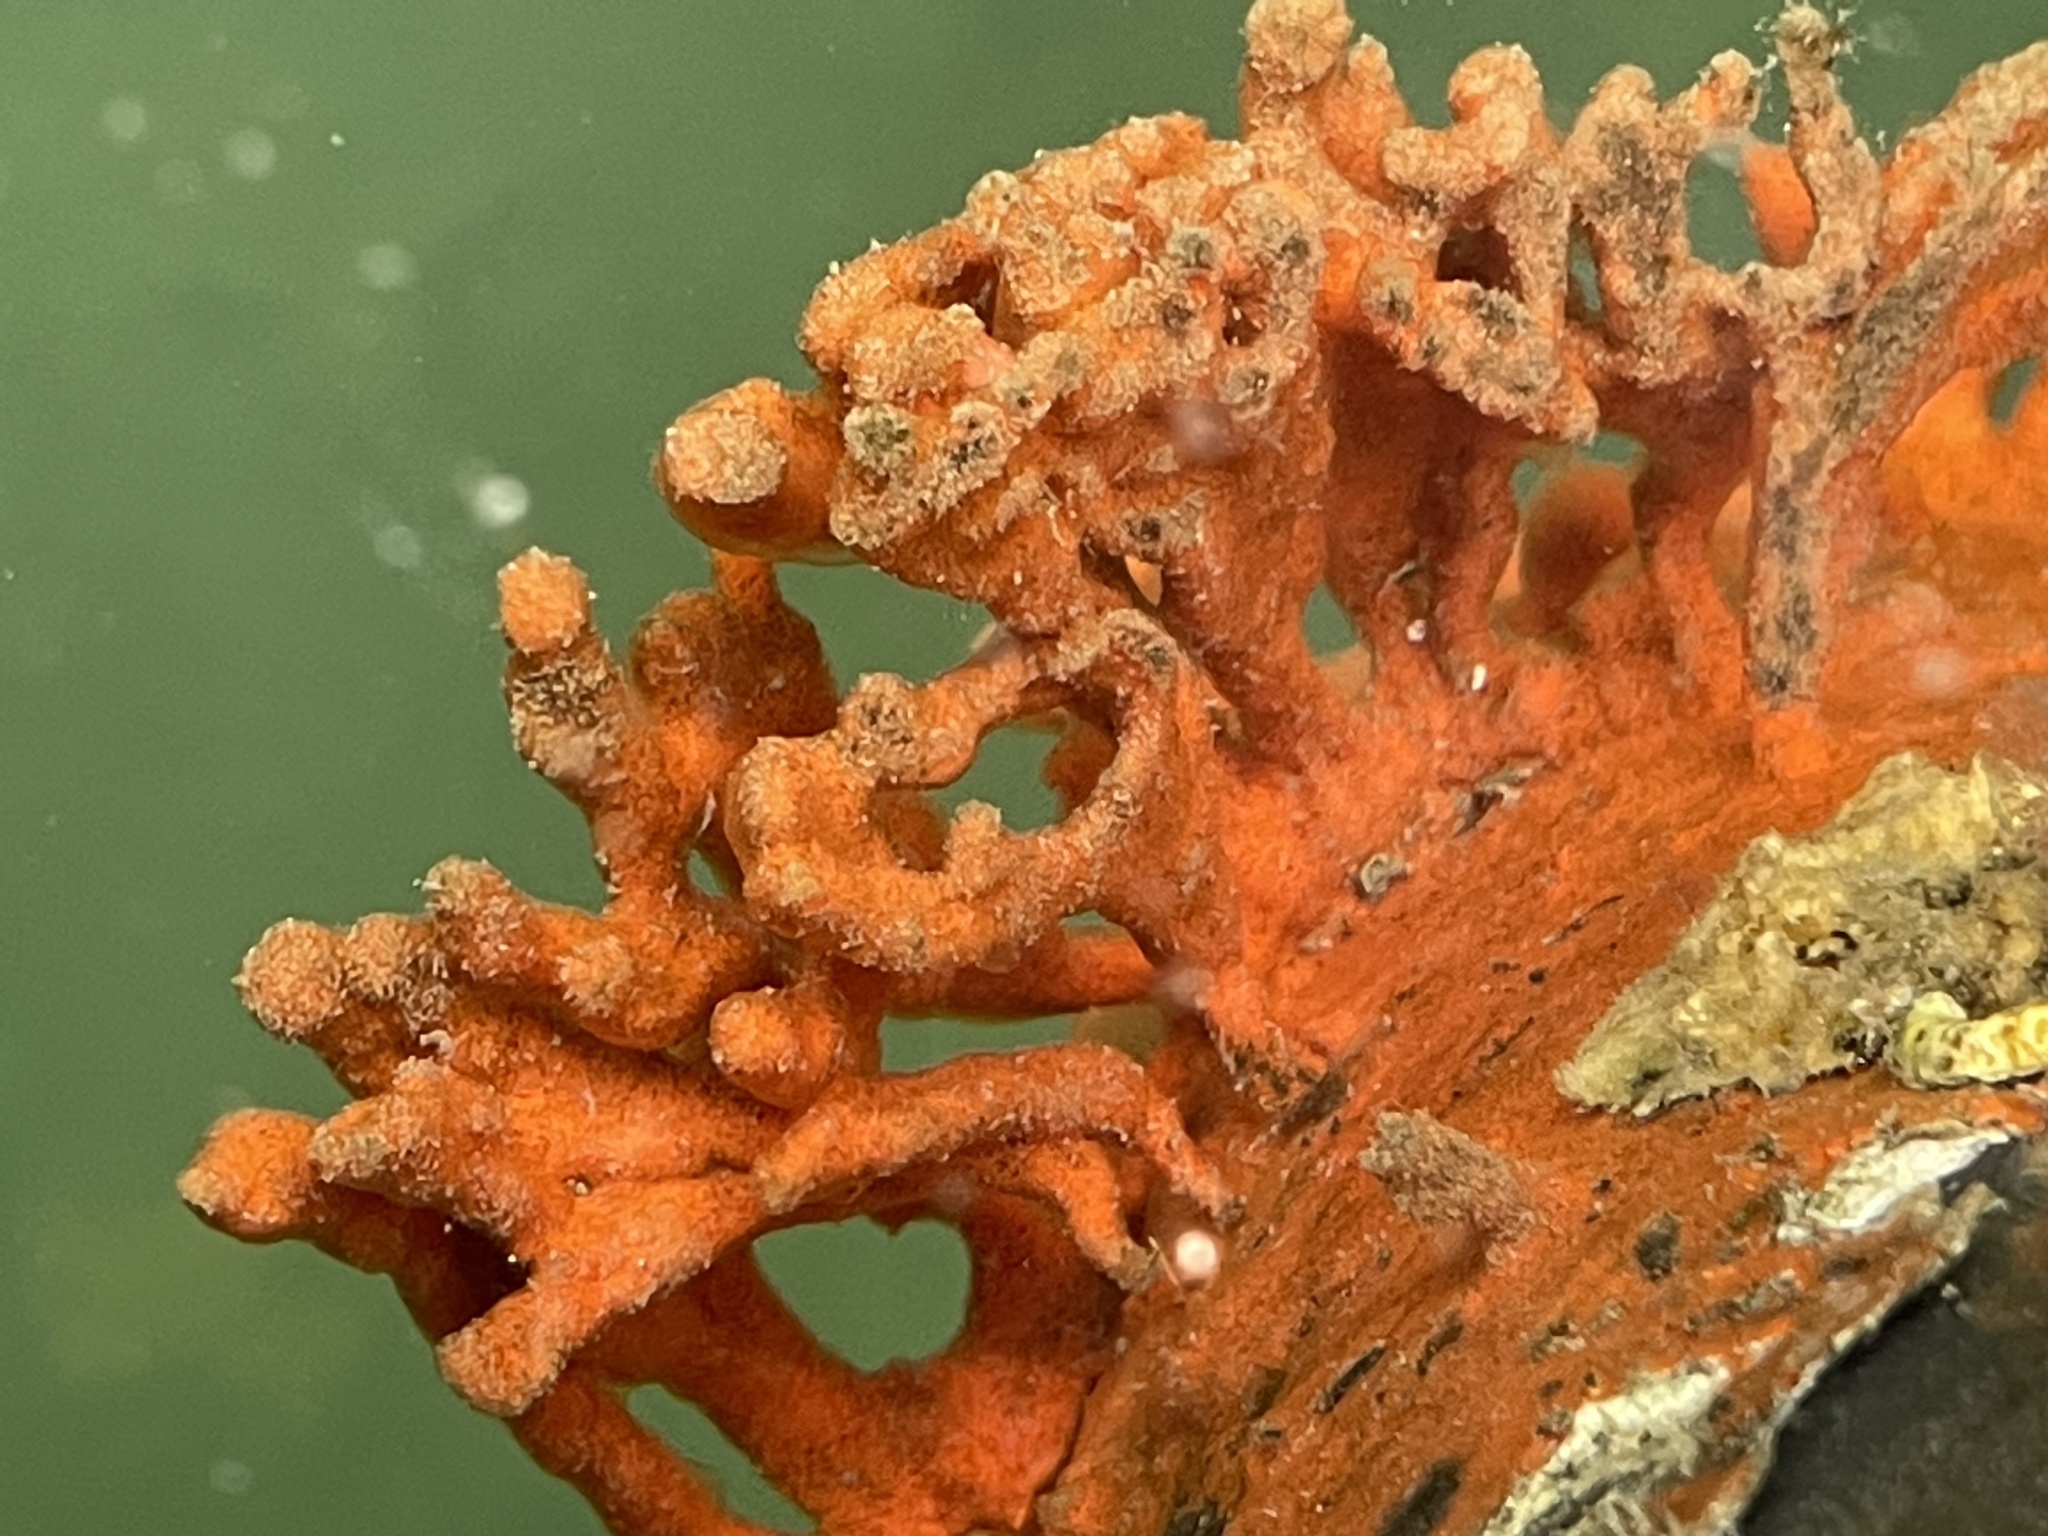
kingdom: Animalia
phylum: Porifera
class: Demospongiae
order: Poecilosclerida
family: Microcionidae
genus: Clathria
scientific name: Clathria prolifera
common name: Red beard sponge
